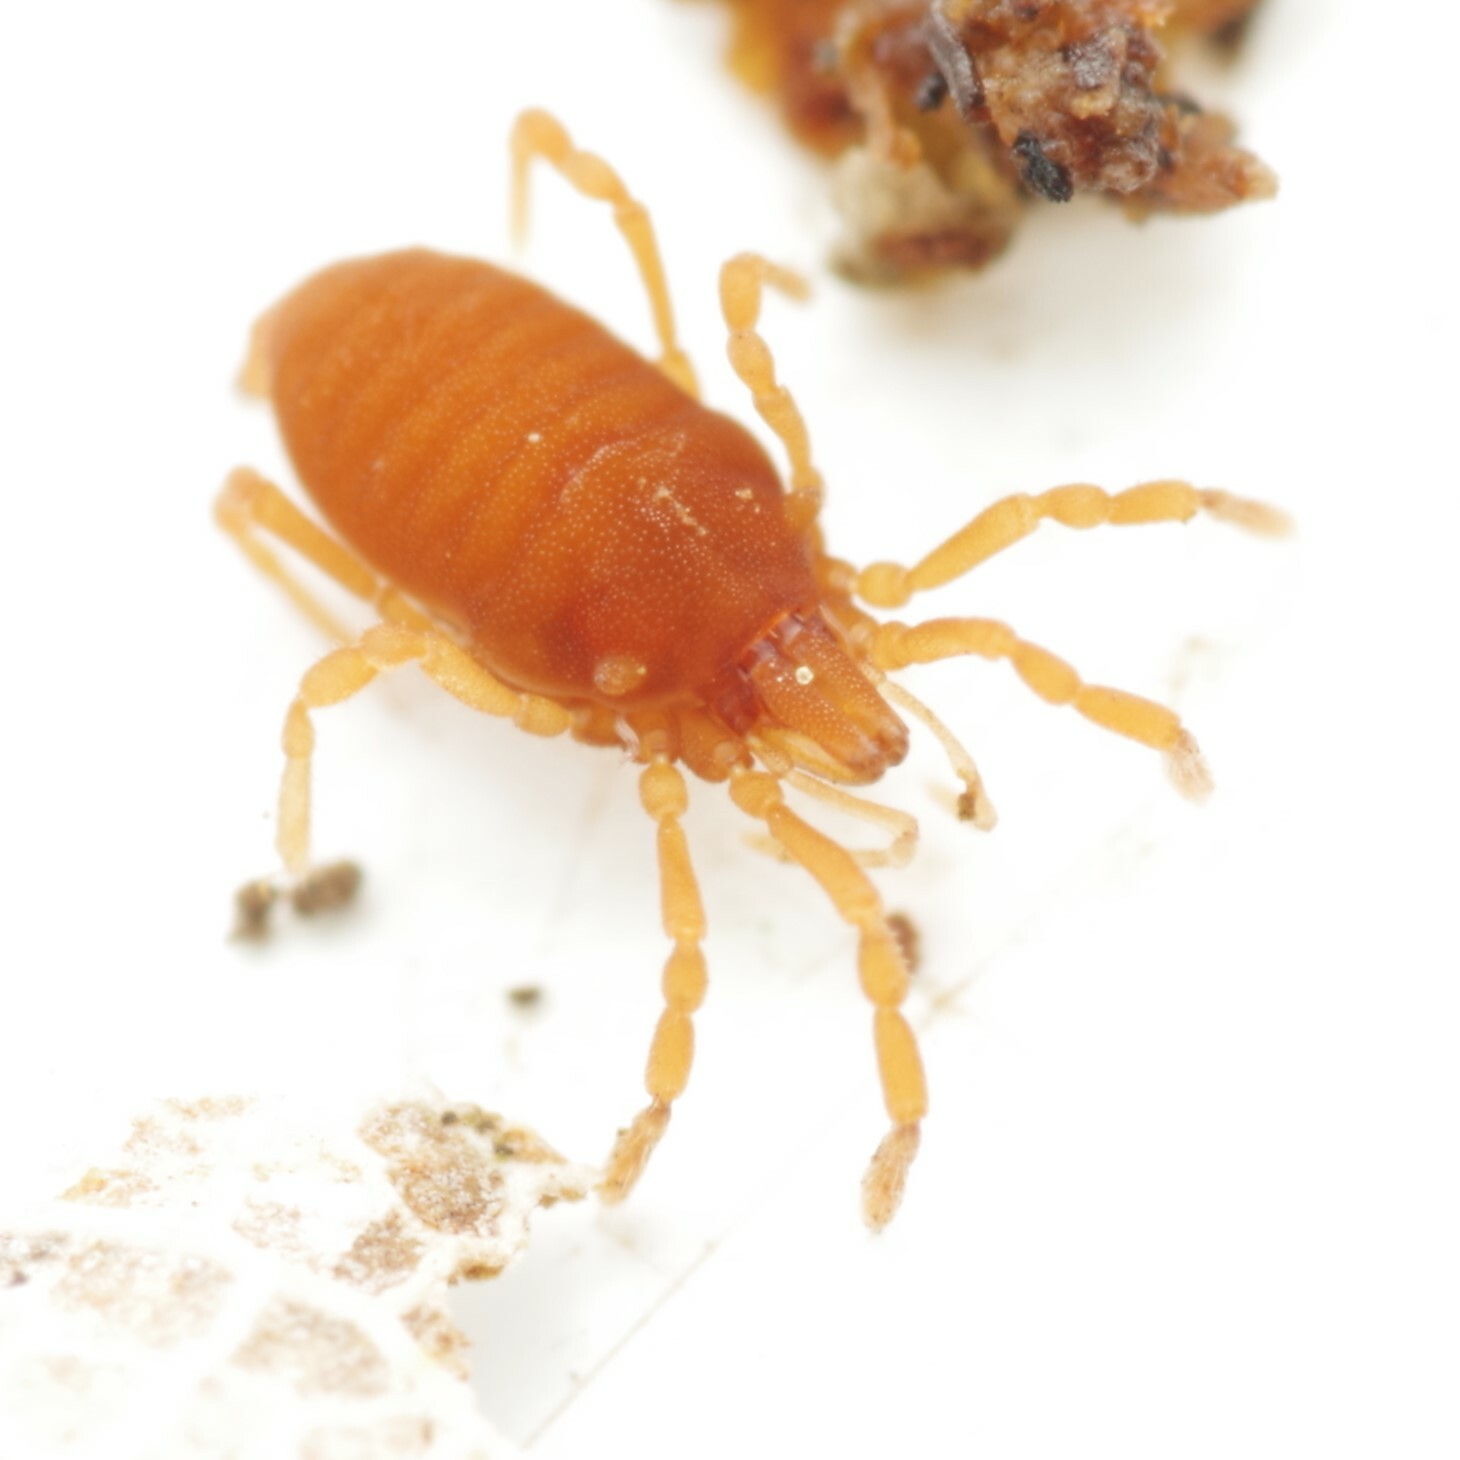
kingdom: Animalia
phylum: Arthropoda
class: Arachnida
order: Opiliones
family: Sironidae
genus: Siro
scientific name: Siro rubens
